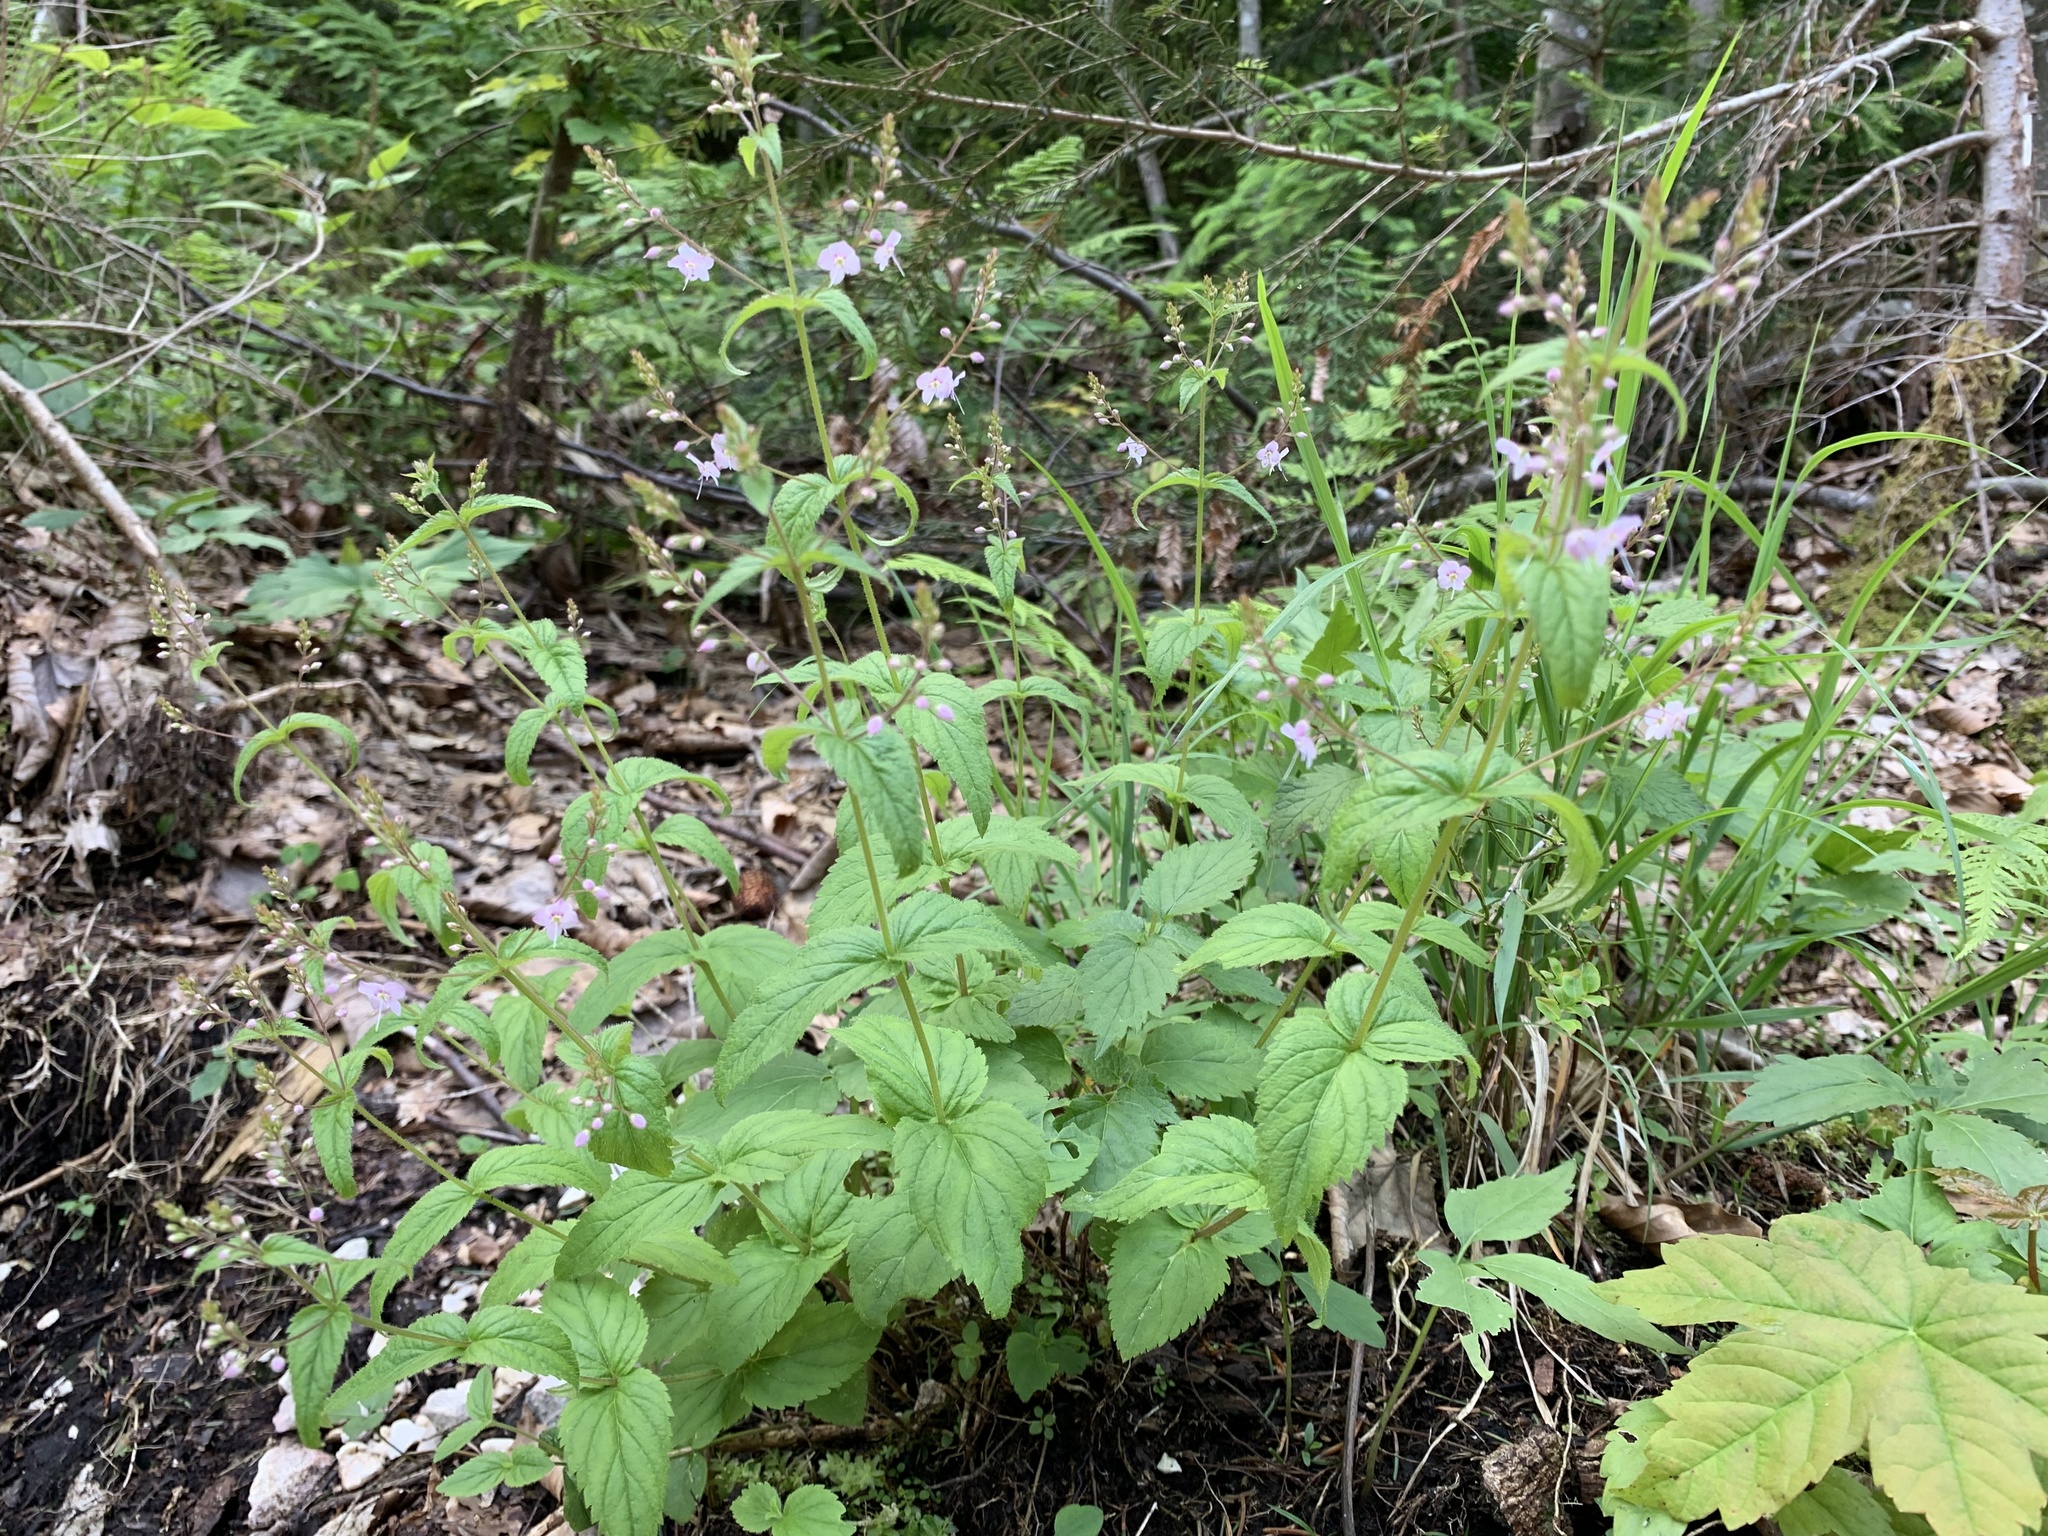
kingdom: Plantae
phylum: Tracheophyta
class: Magnoliopsida
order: Lamiales
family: Plantaginaceae
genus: Veronica
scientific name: Veronica urticifolia
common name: Nettle-leaf speedwell
